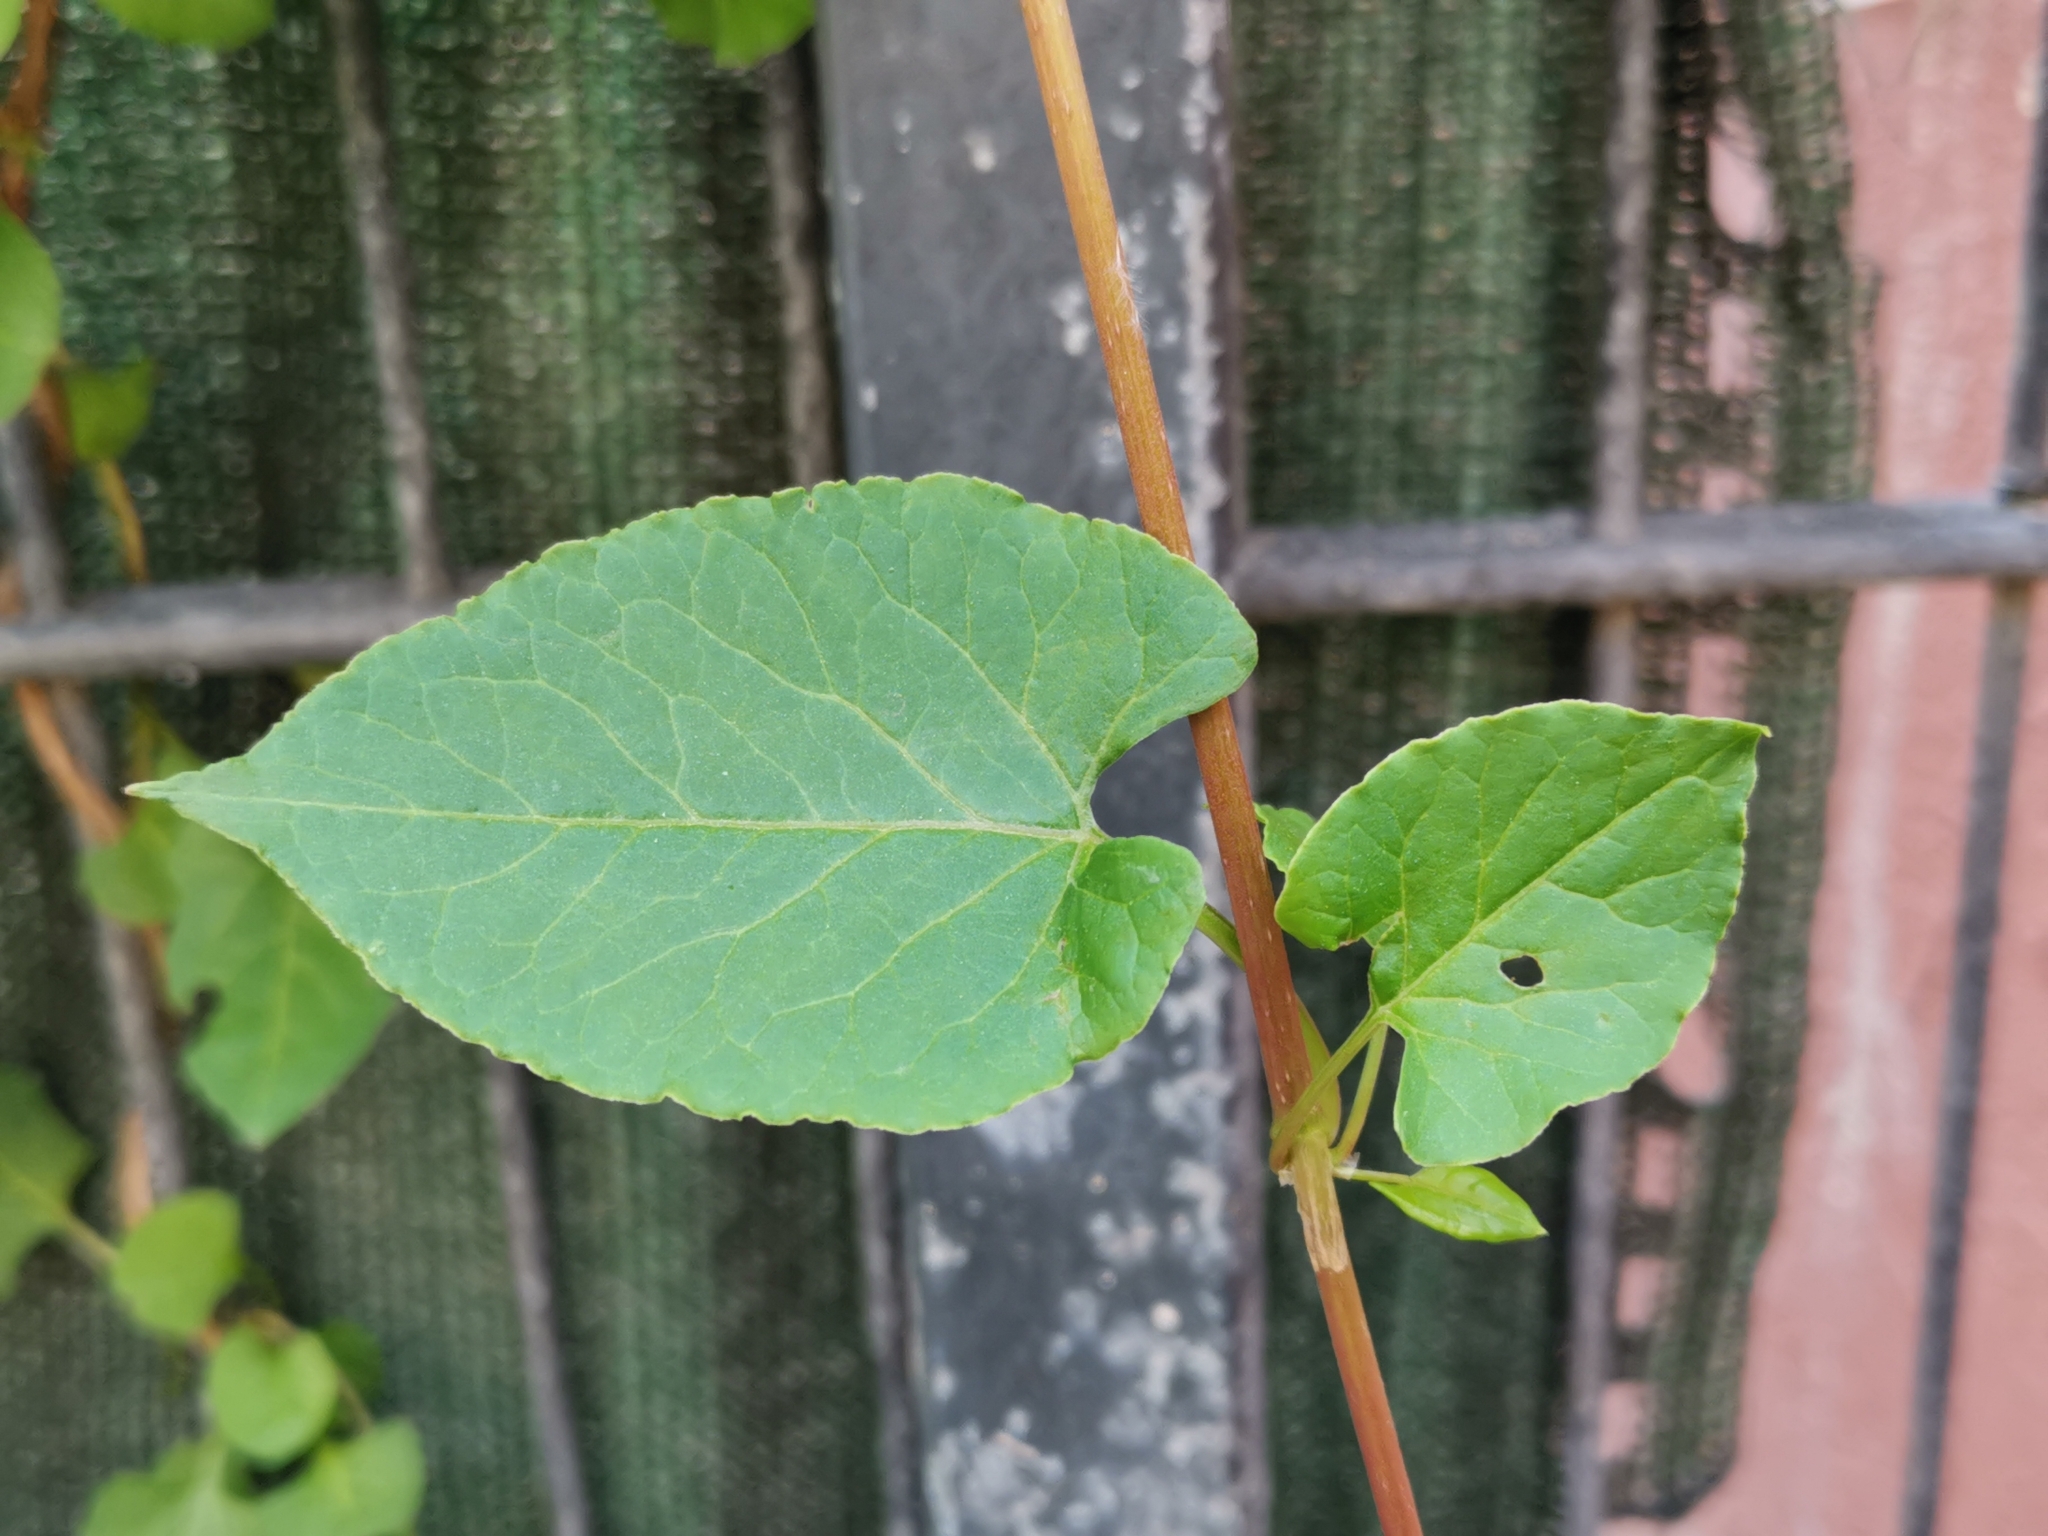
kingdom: Plantae
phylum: Tracheophyta
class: Magnoliopsida
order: Caryophyllales
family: Polygonaceae
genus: Fallopia
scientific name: Fallopia baldschuanica
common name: Russian-vine
